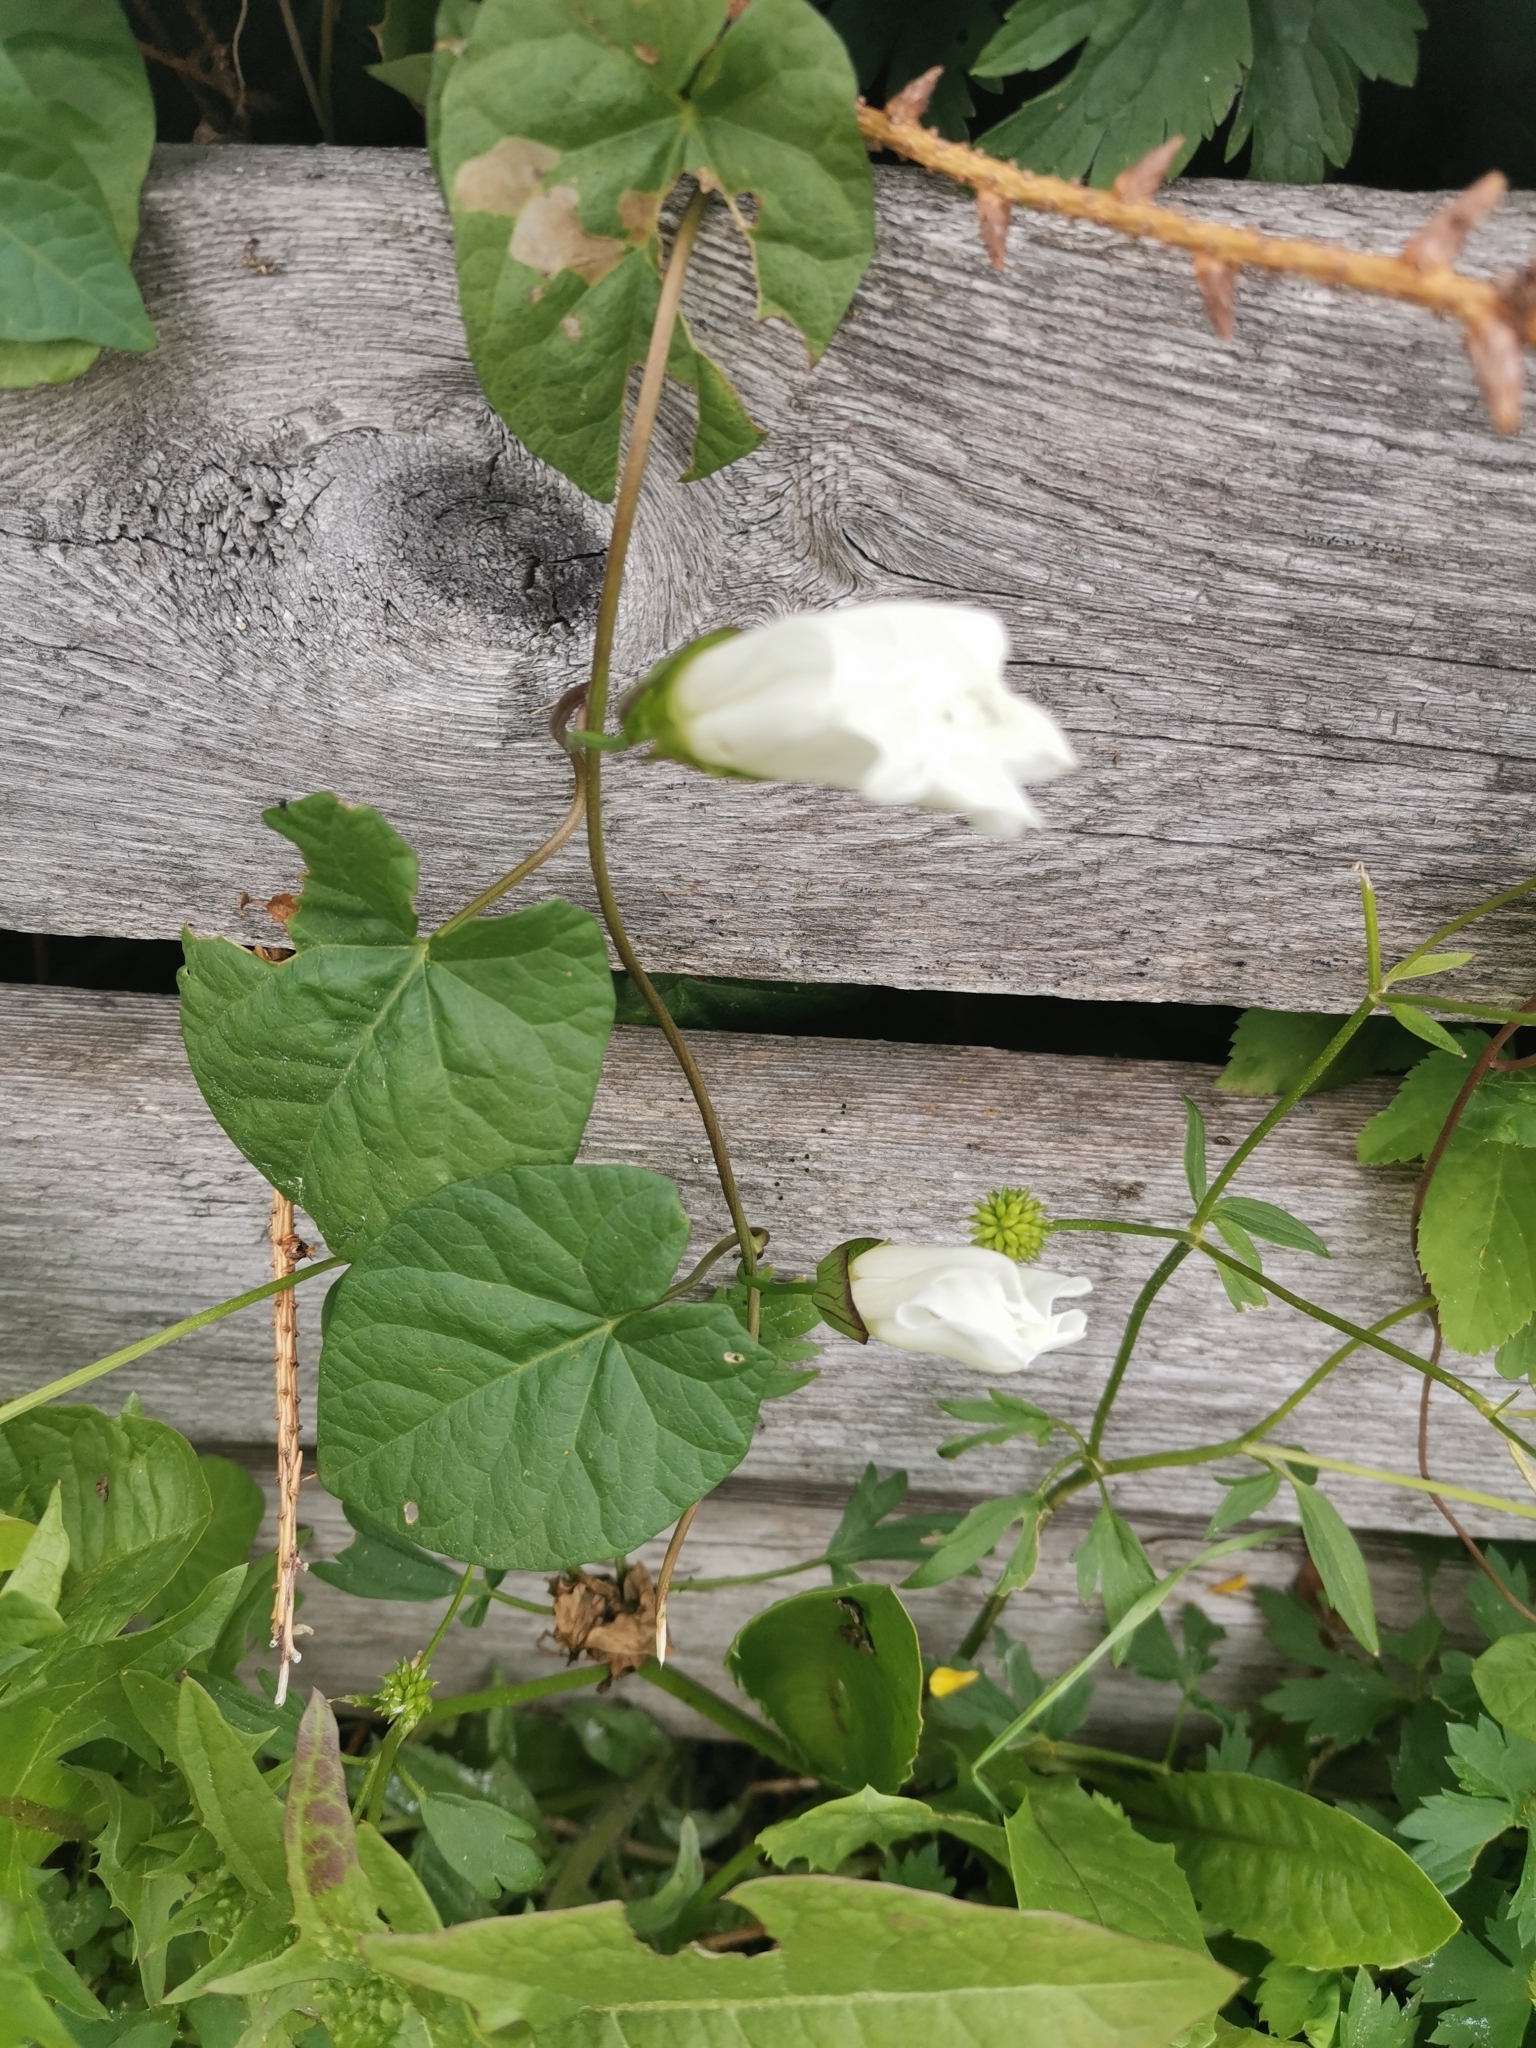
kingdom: Plantae
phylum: Tracheophyta
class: Magnoliopsida
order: Solanales
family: Convolvulaceae
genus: Calystegia
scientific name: Calystegia sepium
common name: Hedge bindweed
